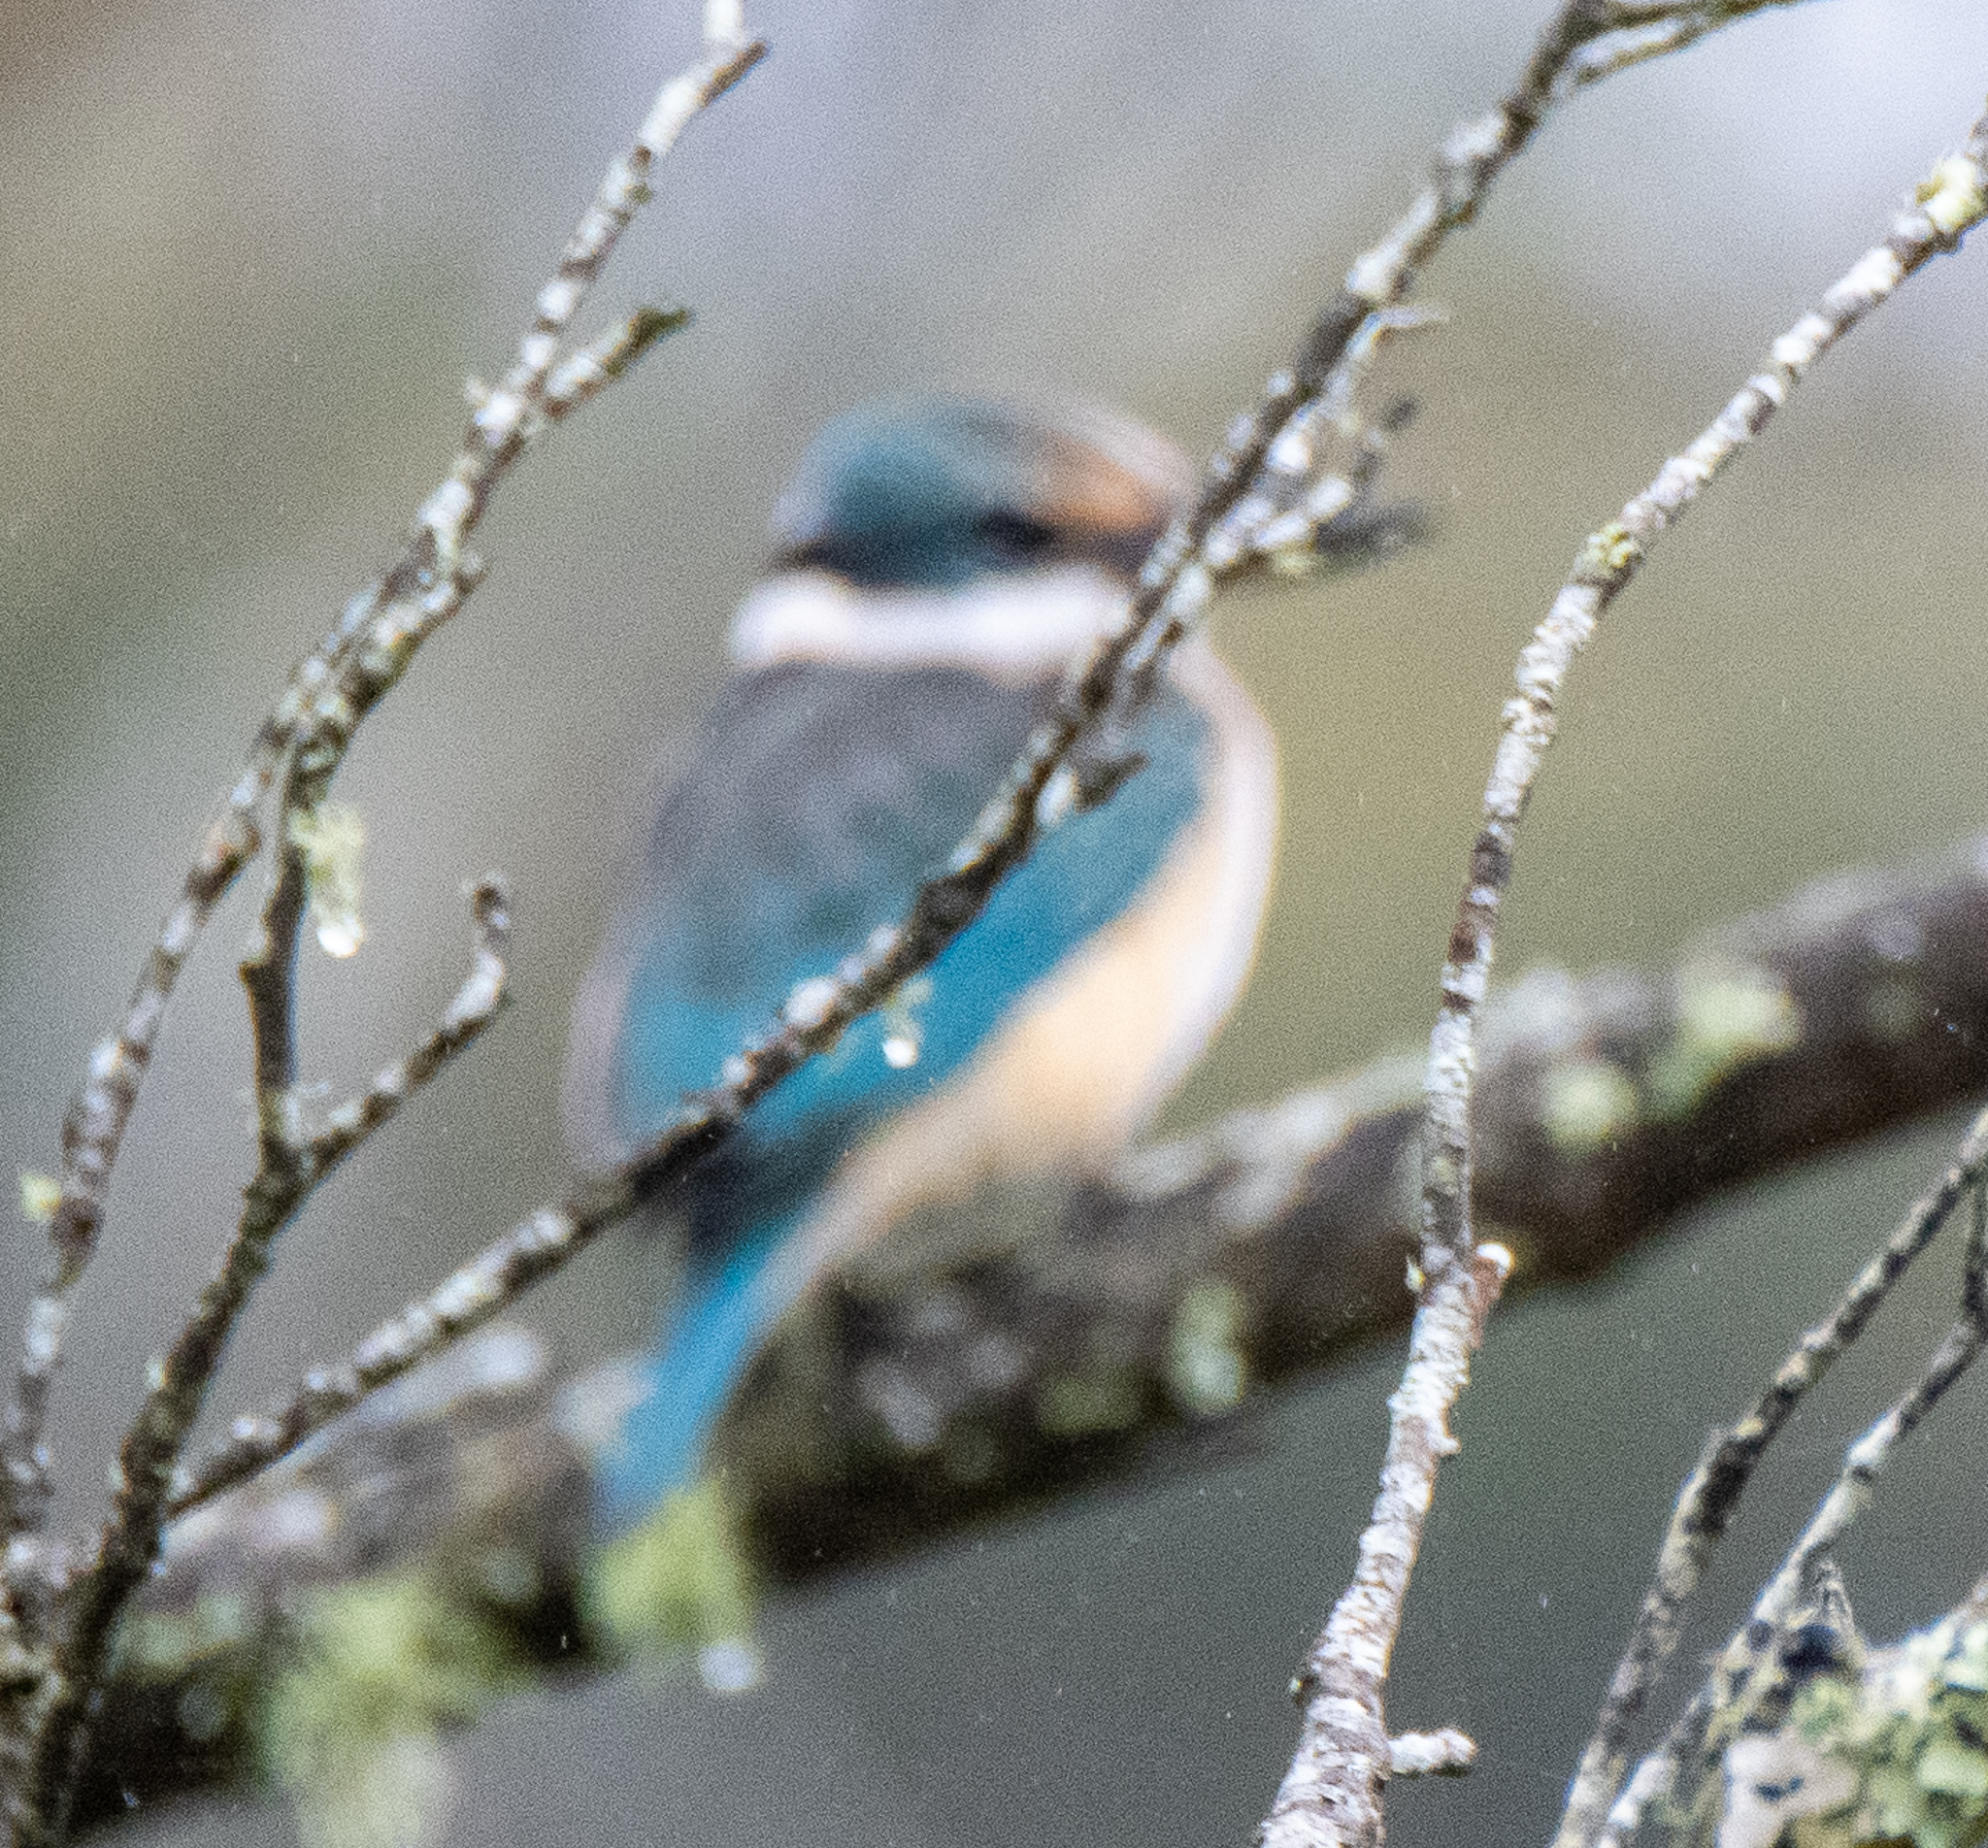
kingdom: Animalia
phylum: Chordata
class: Aves
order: Coraciiformes
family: Alcedinidae
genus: Todiramphus
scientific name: Todiramphus sanctus
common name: Sacred kingfisher
